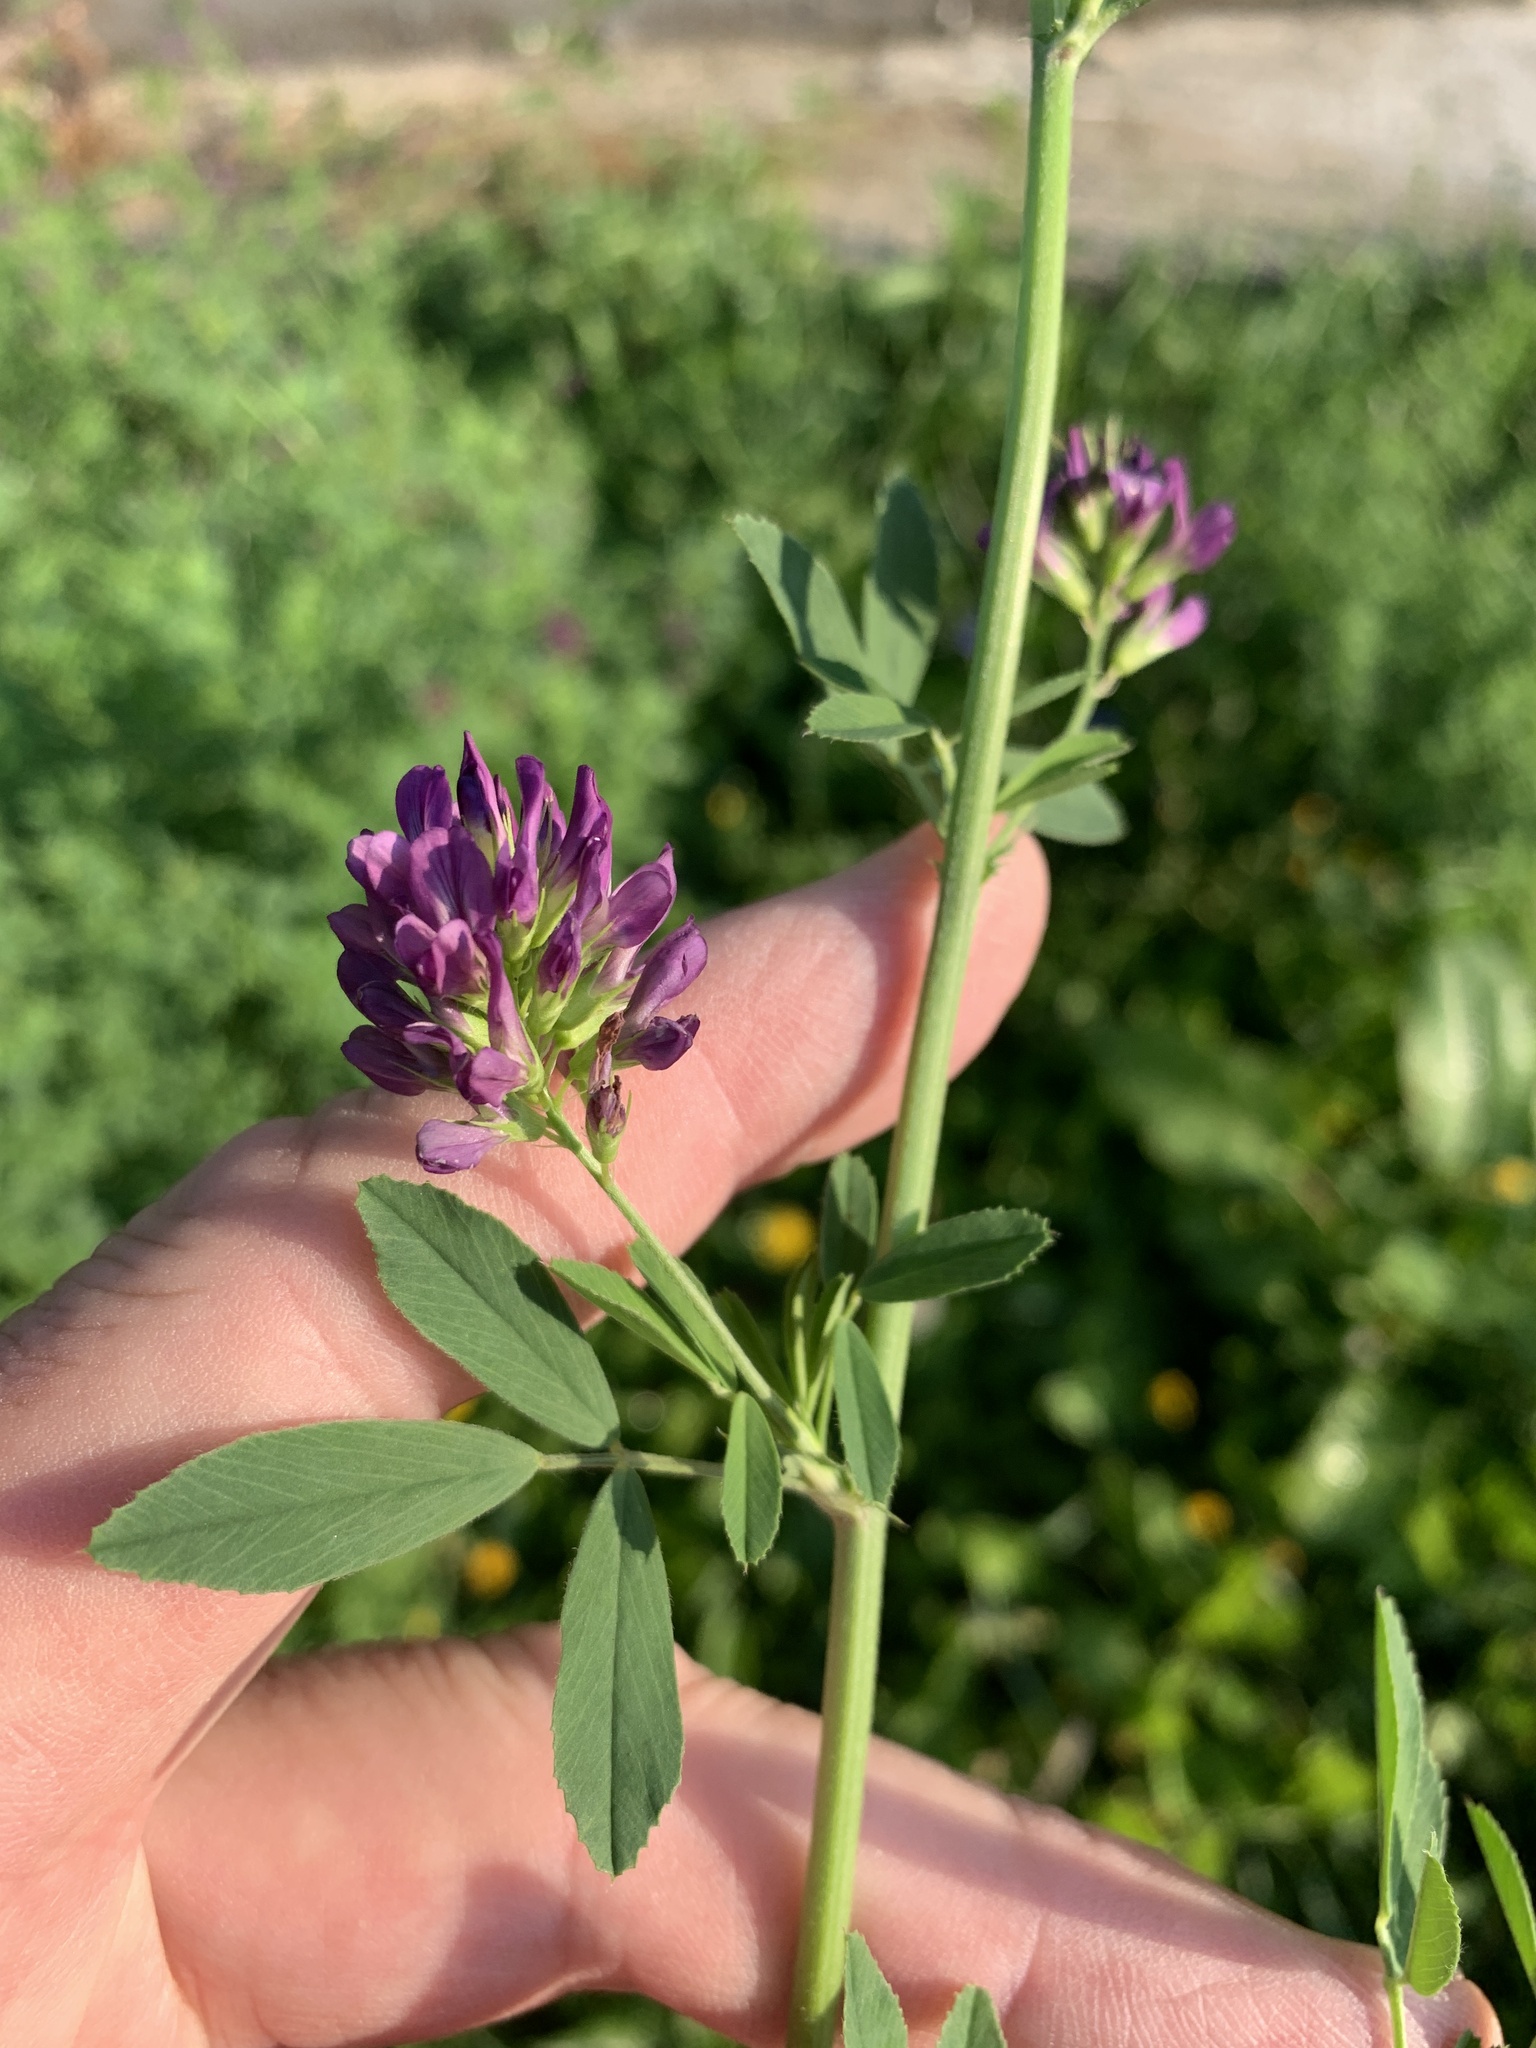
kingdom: Plantae
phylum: Tracheophyta
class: Magnoliopsida
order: Fabales
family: Fabaceae
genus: Medicago
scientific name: Medicago sativa
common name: Alfalfa
